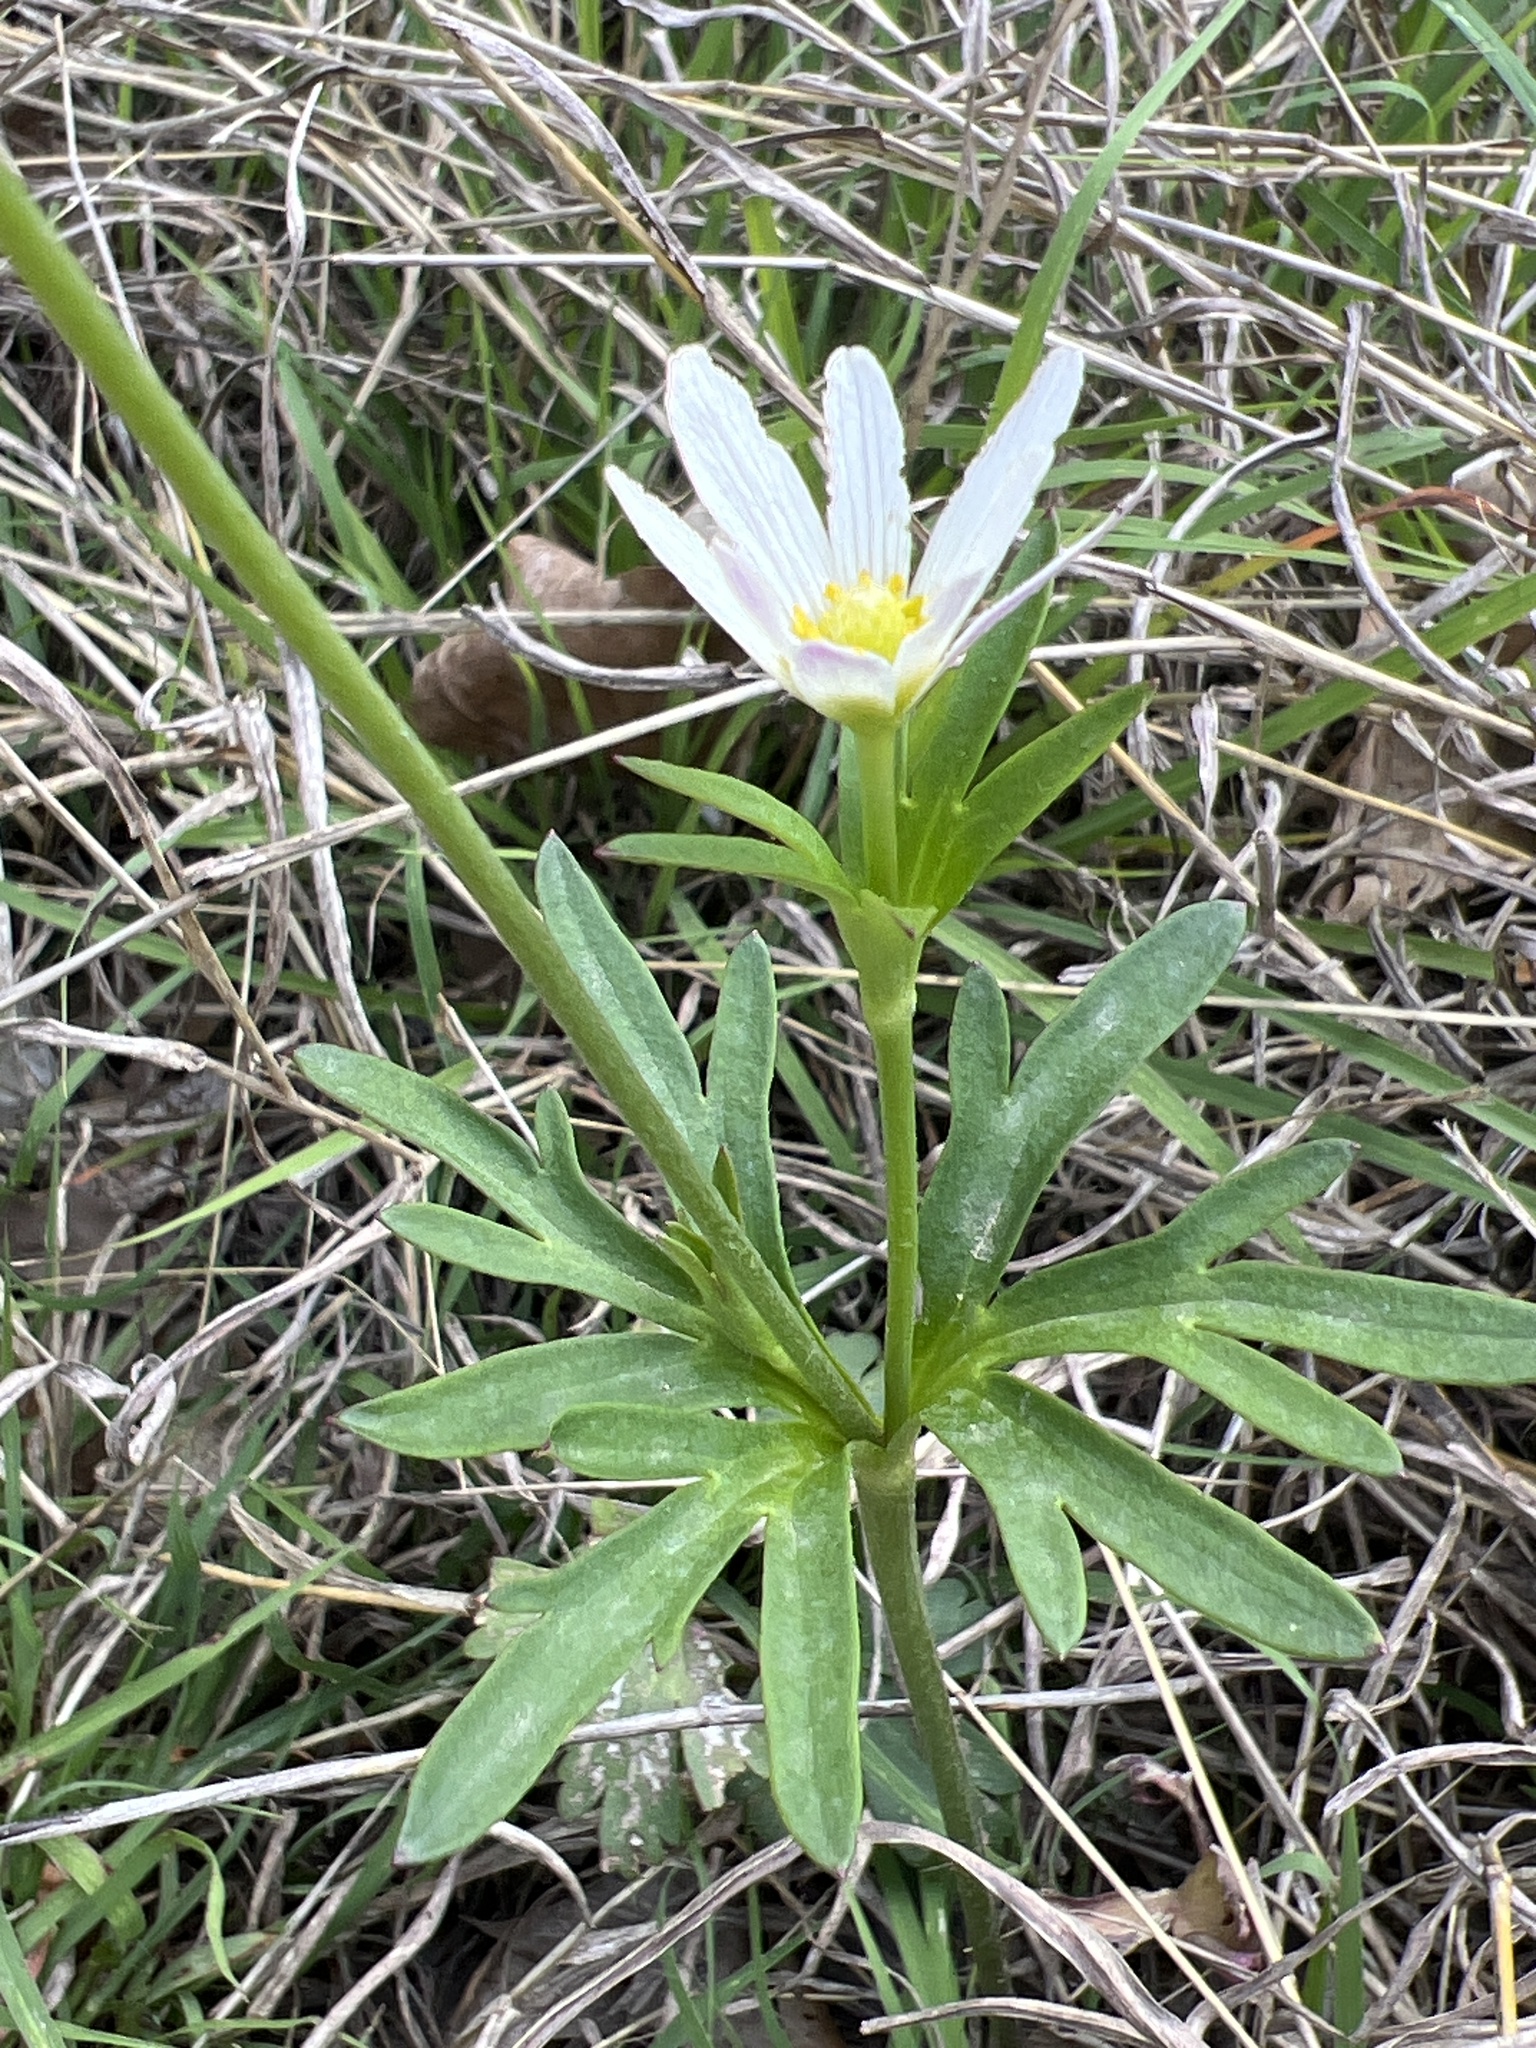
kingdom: Plantae
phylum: Tracheophyta
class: Magnoliopsida
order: Ranunculales
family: Ranunculaceae
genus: Anemone
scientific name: Anemone edwardsiana
